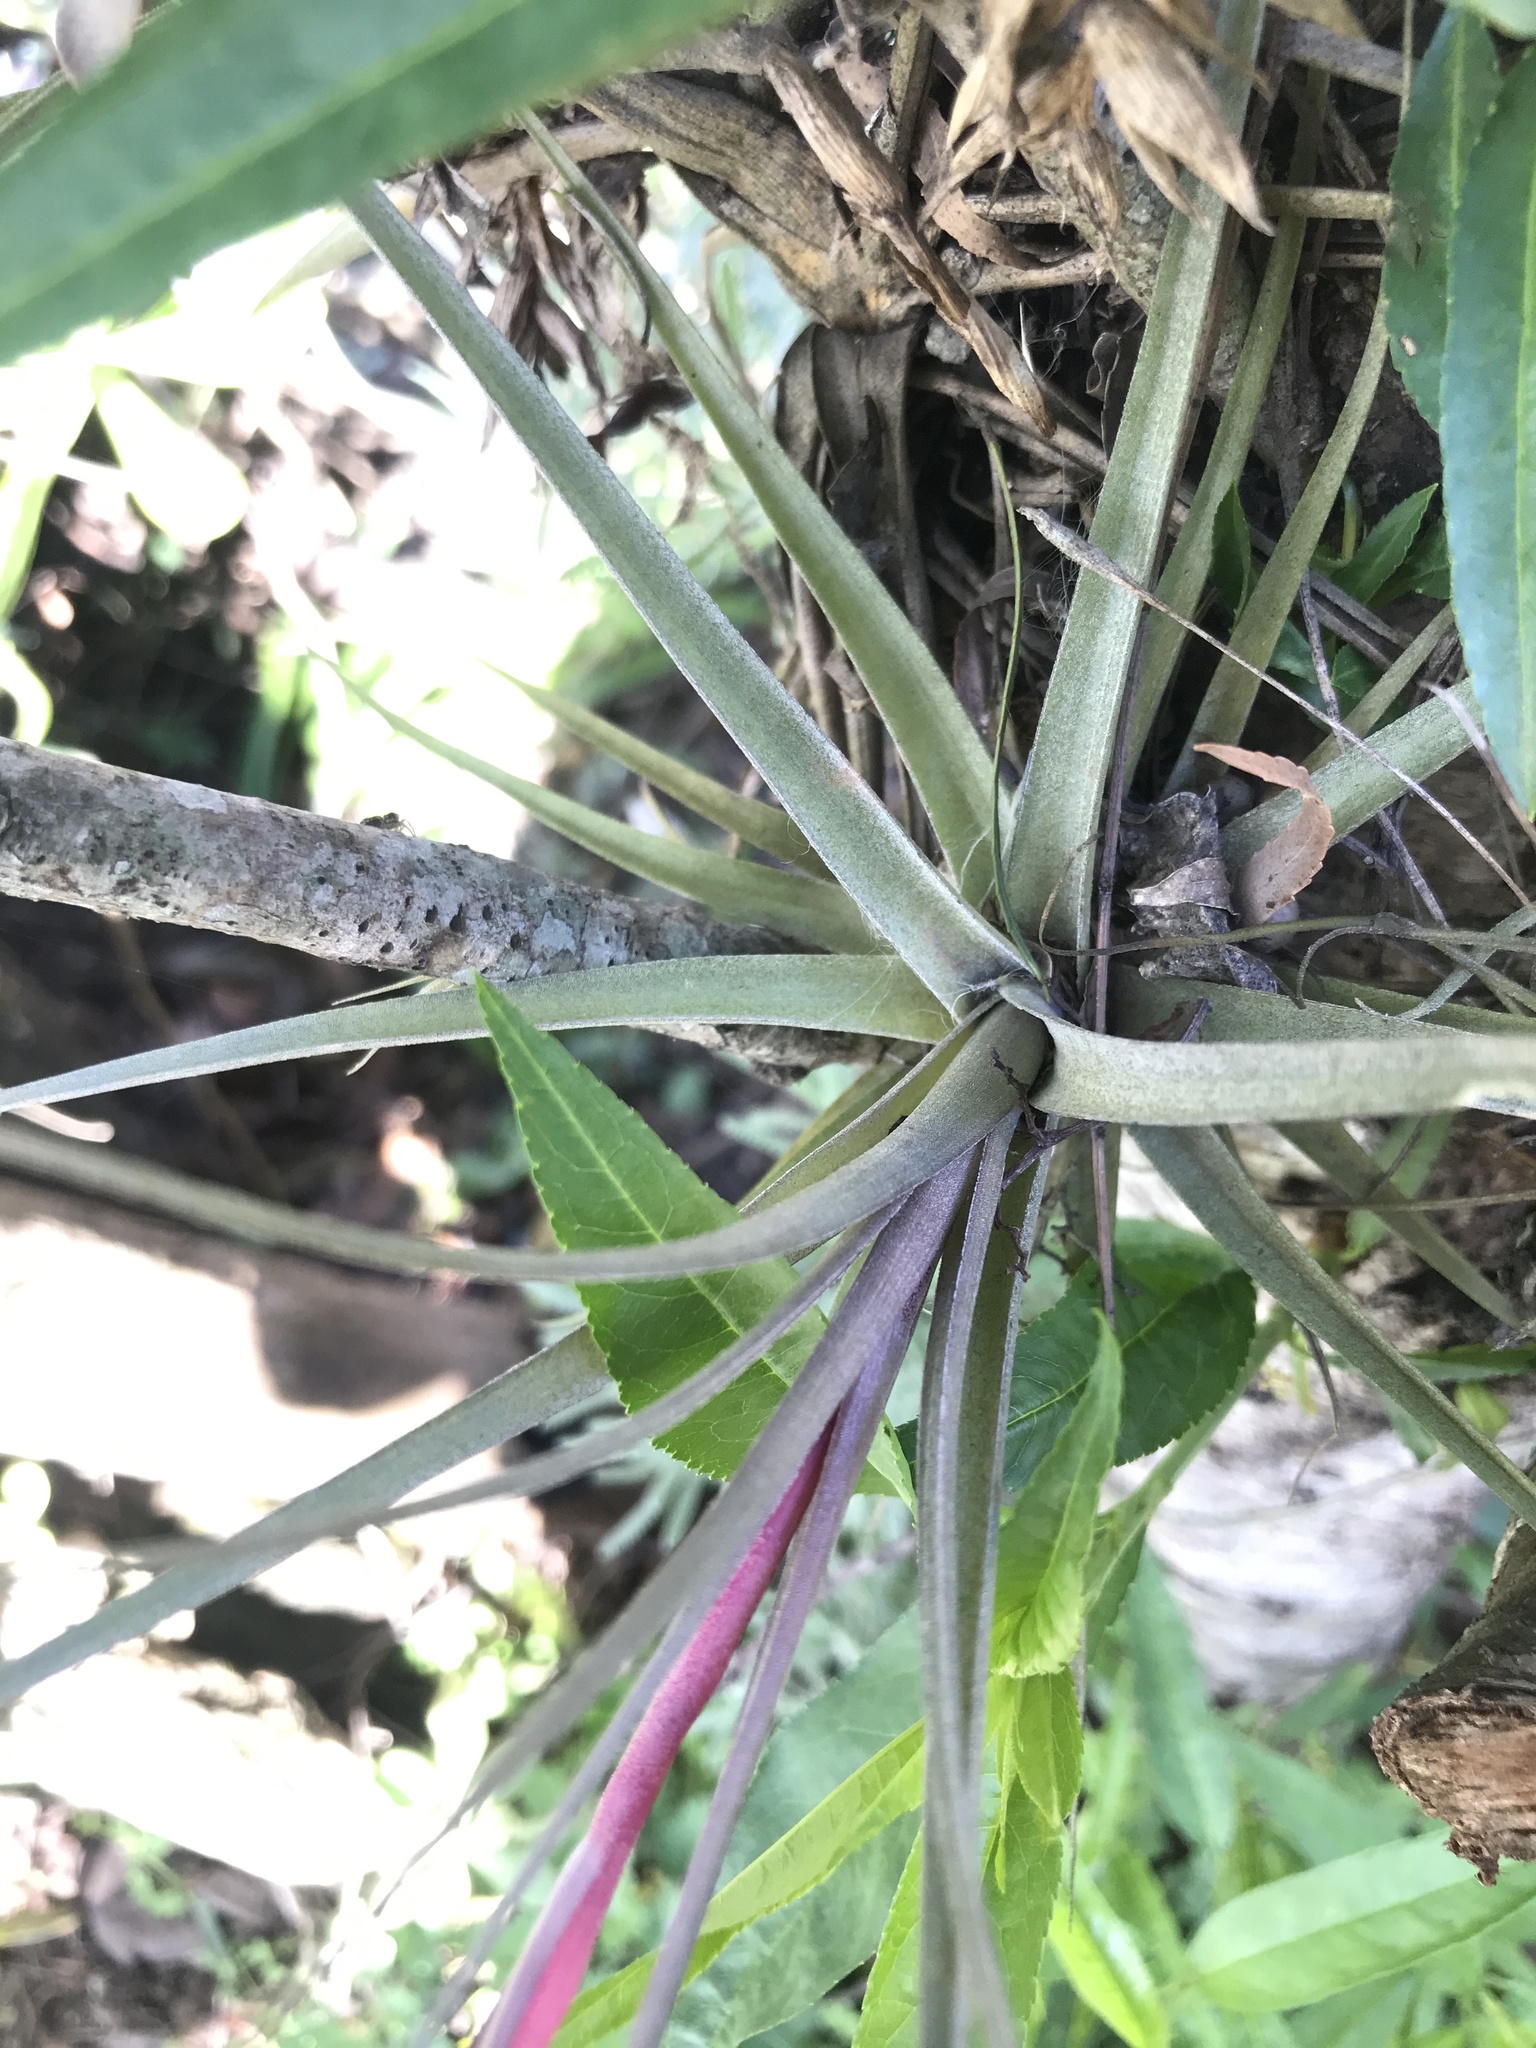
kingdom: Plantae
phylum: Tracheophyta
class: Liliopsida
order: Poales
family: Bromeliaceae
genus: Tillandsia
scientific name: Tillandsia aeranthos
